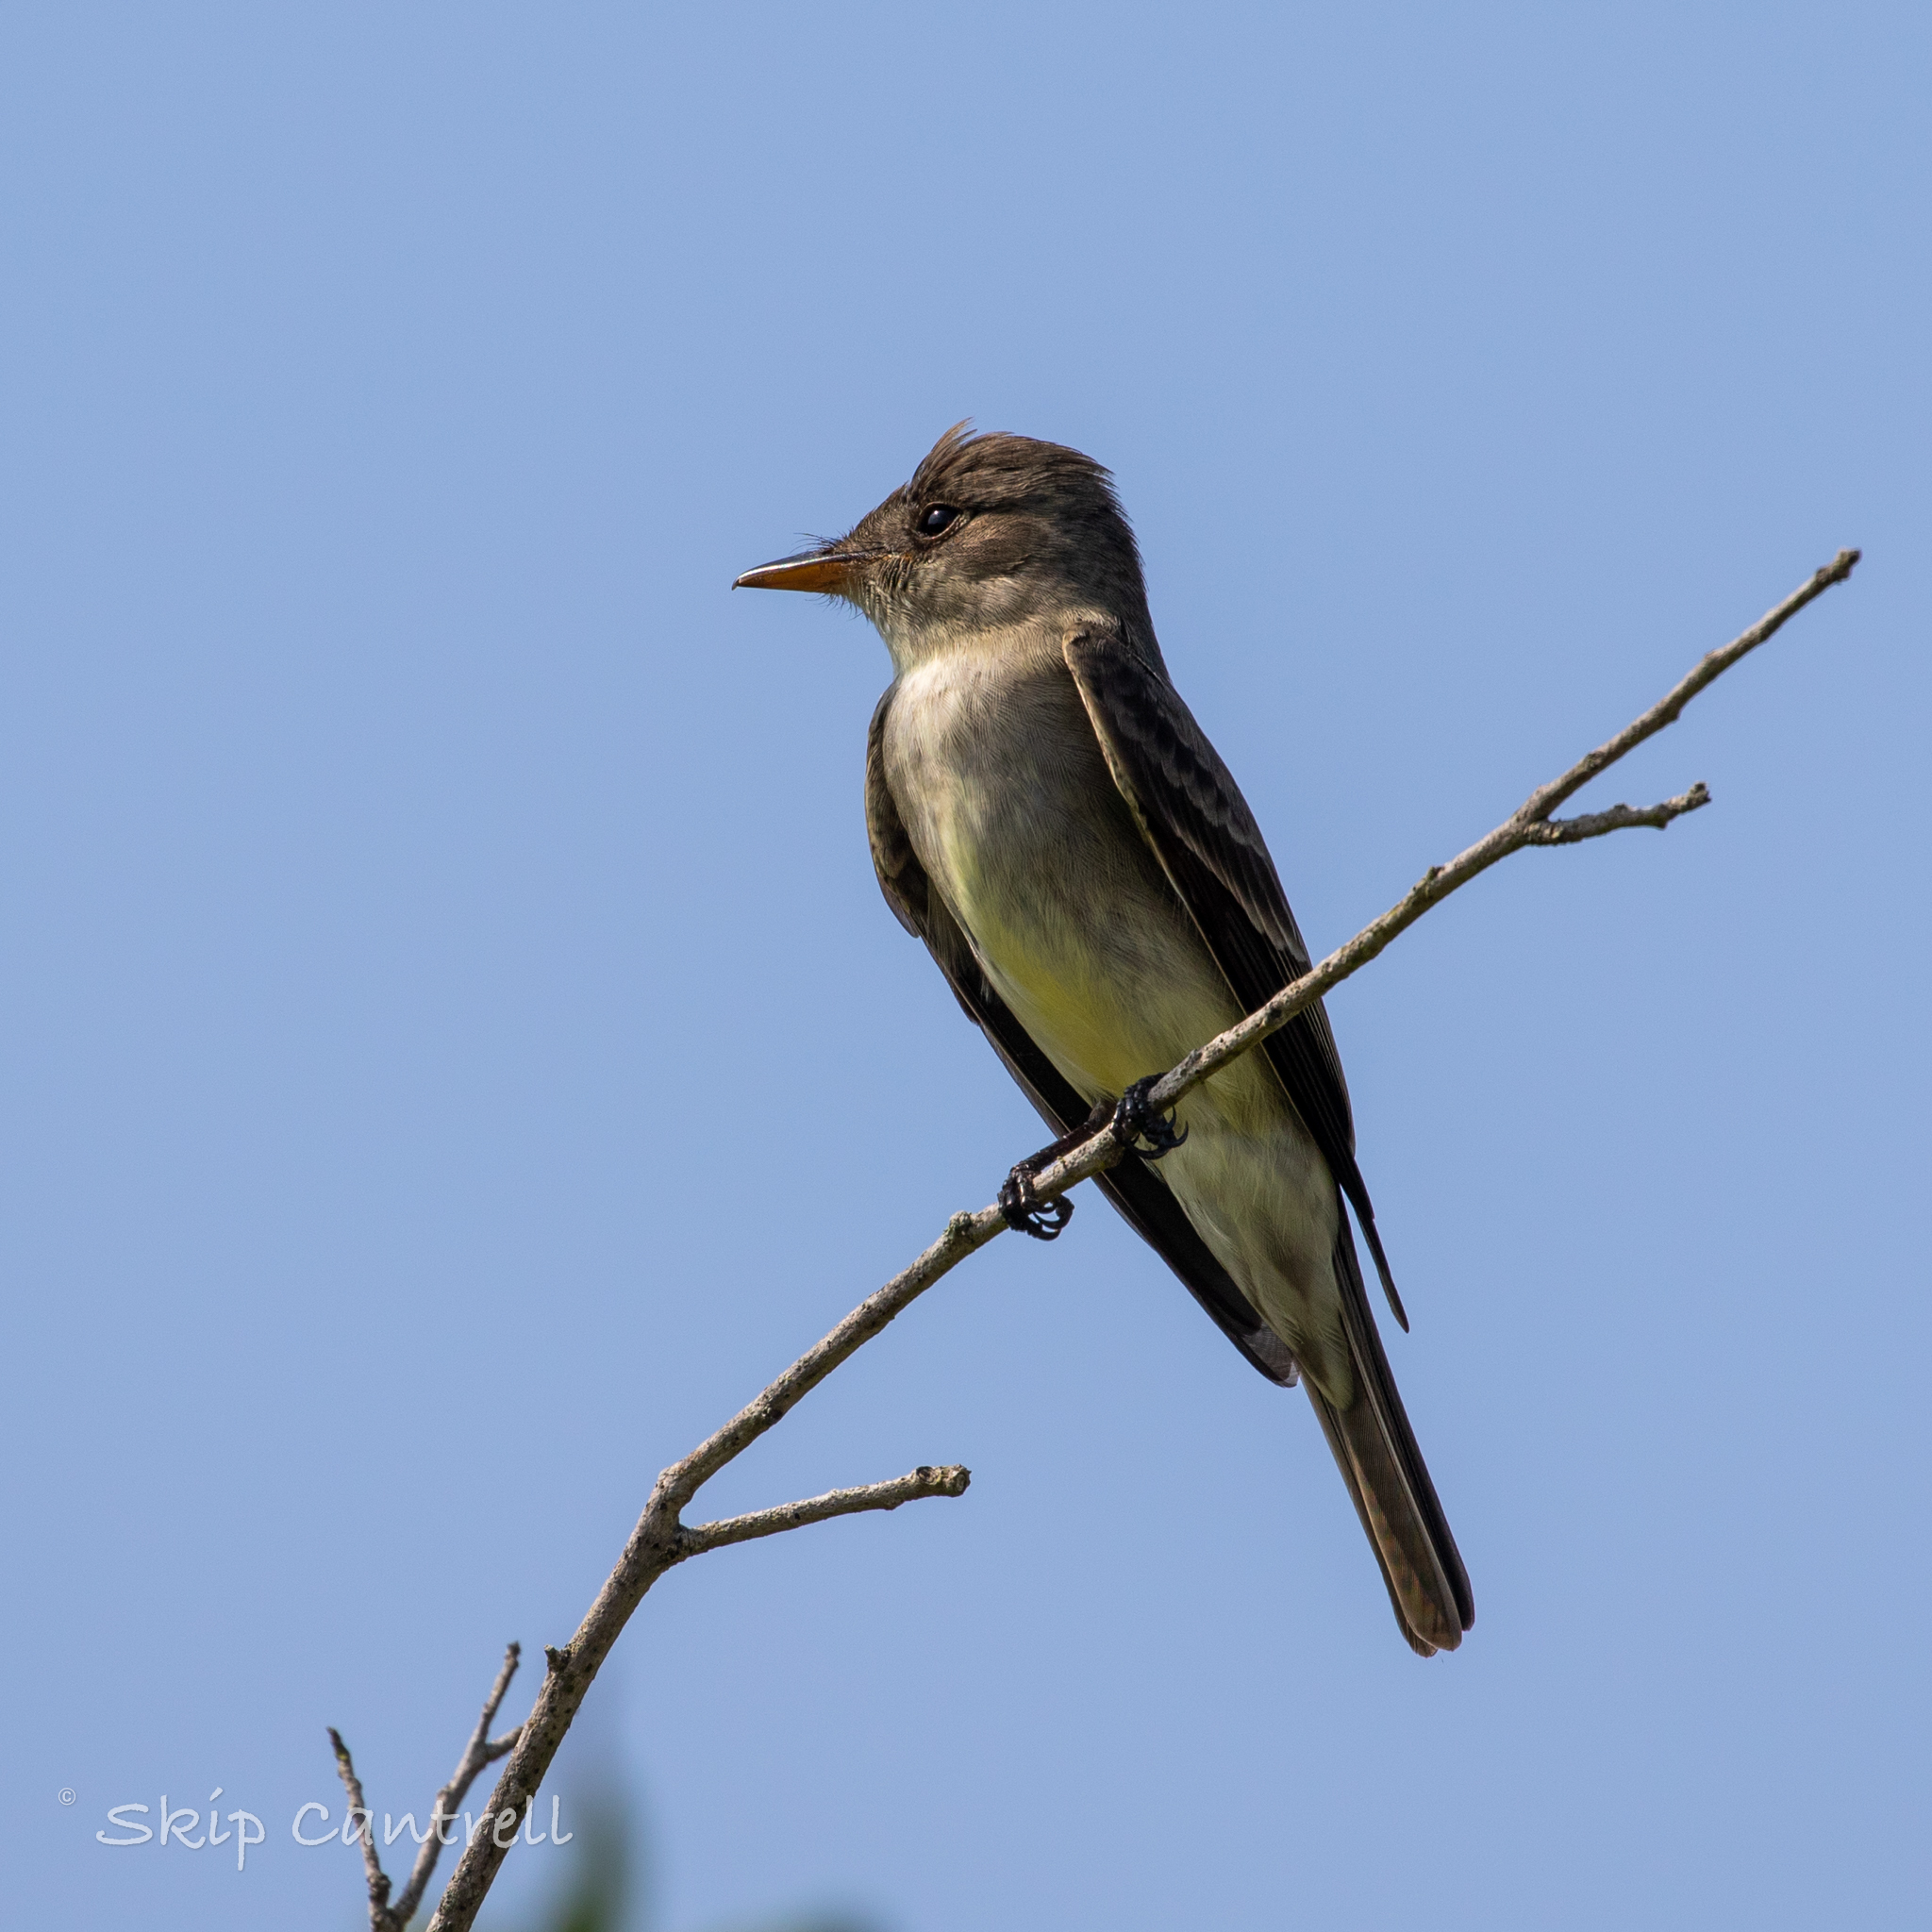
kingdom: Animalia
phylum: Chordata
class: Aves
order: Passeriformes
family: Tyrannidae
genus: Contopus
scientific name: Contopus virens
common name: Eastern wood-pewee
